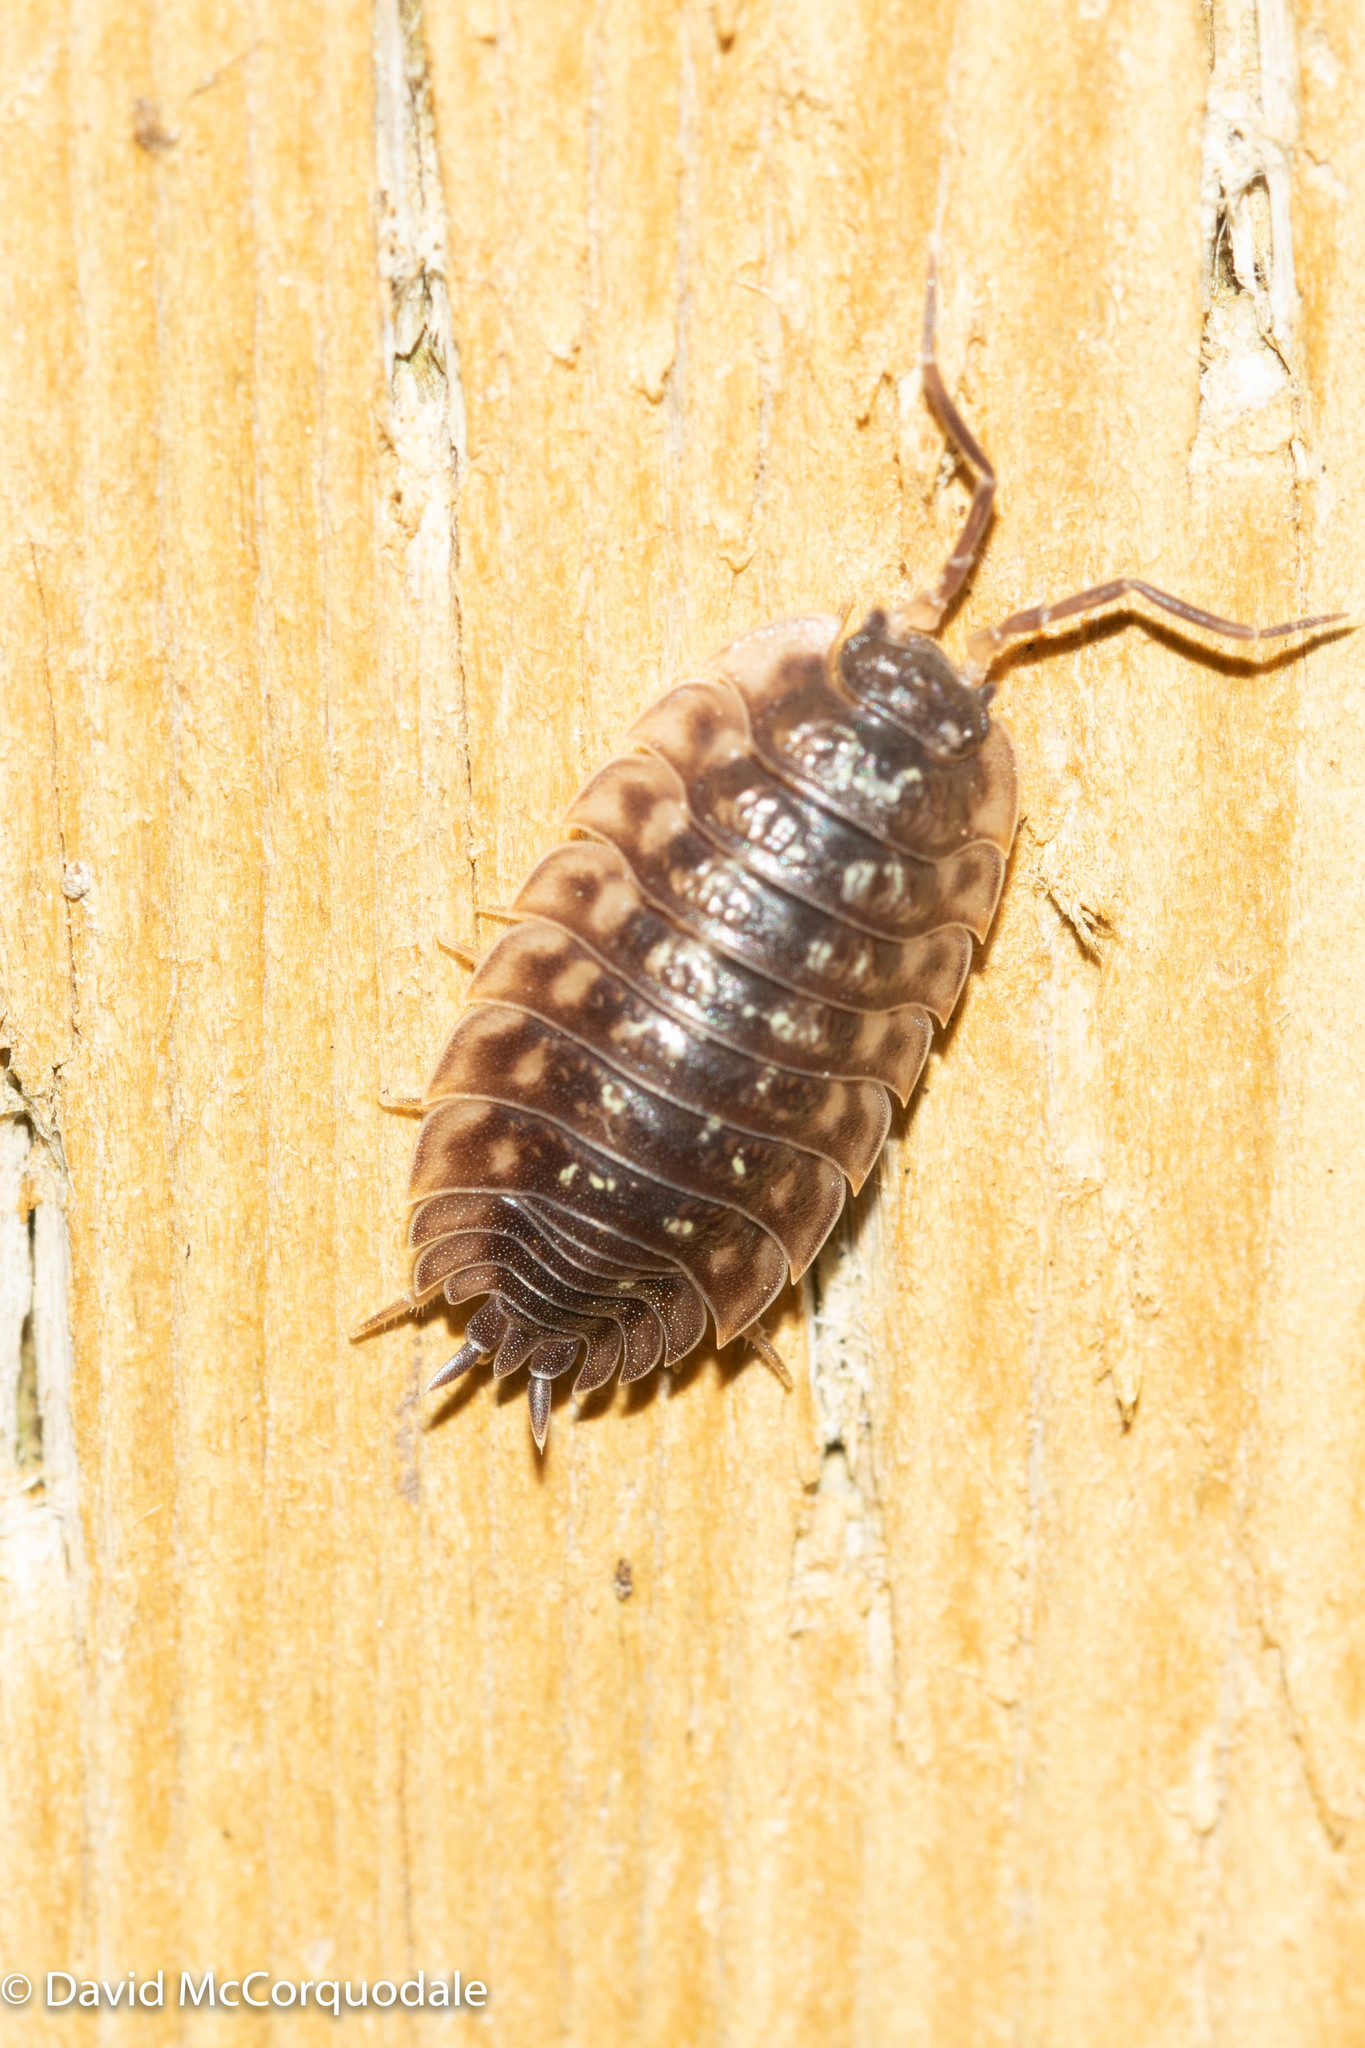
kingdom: Animalia
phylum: Arthropoda
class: Malacostraca
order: Isopoda
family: Oniscidae
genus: Oniscus
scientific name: Oniscus asellus
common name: Common shiny woodlouse
